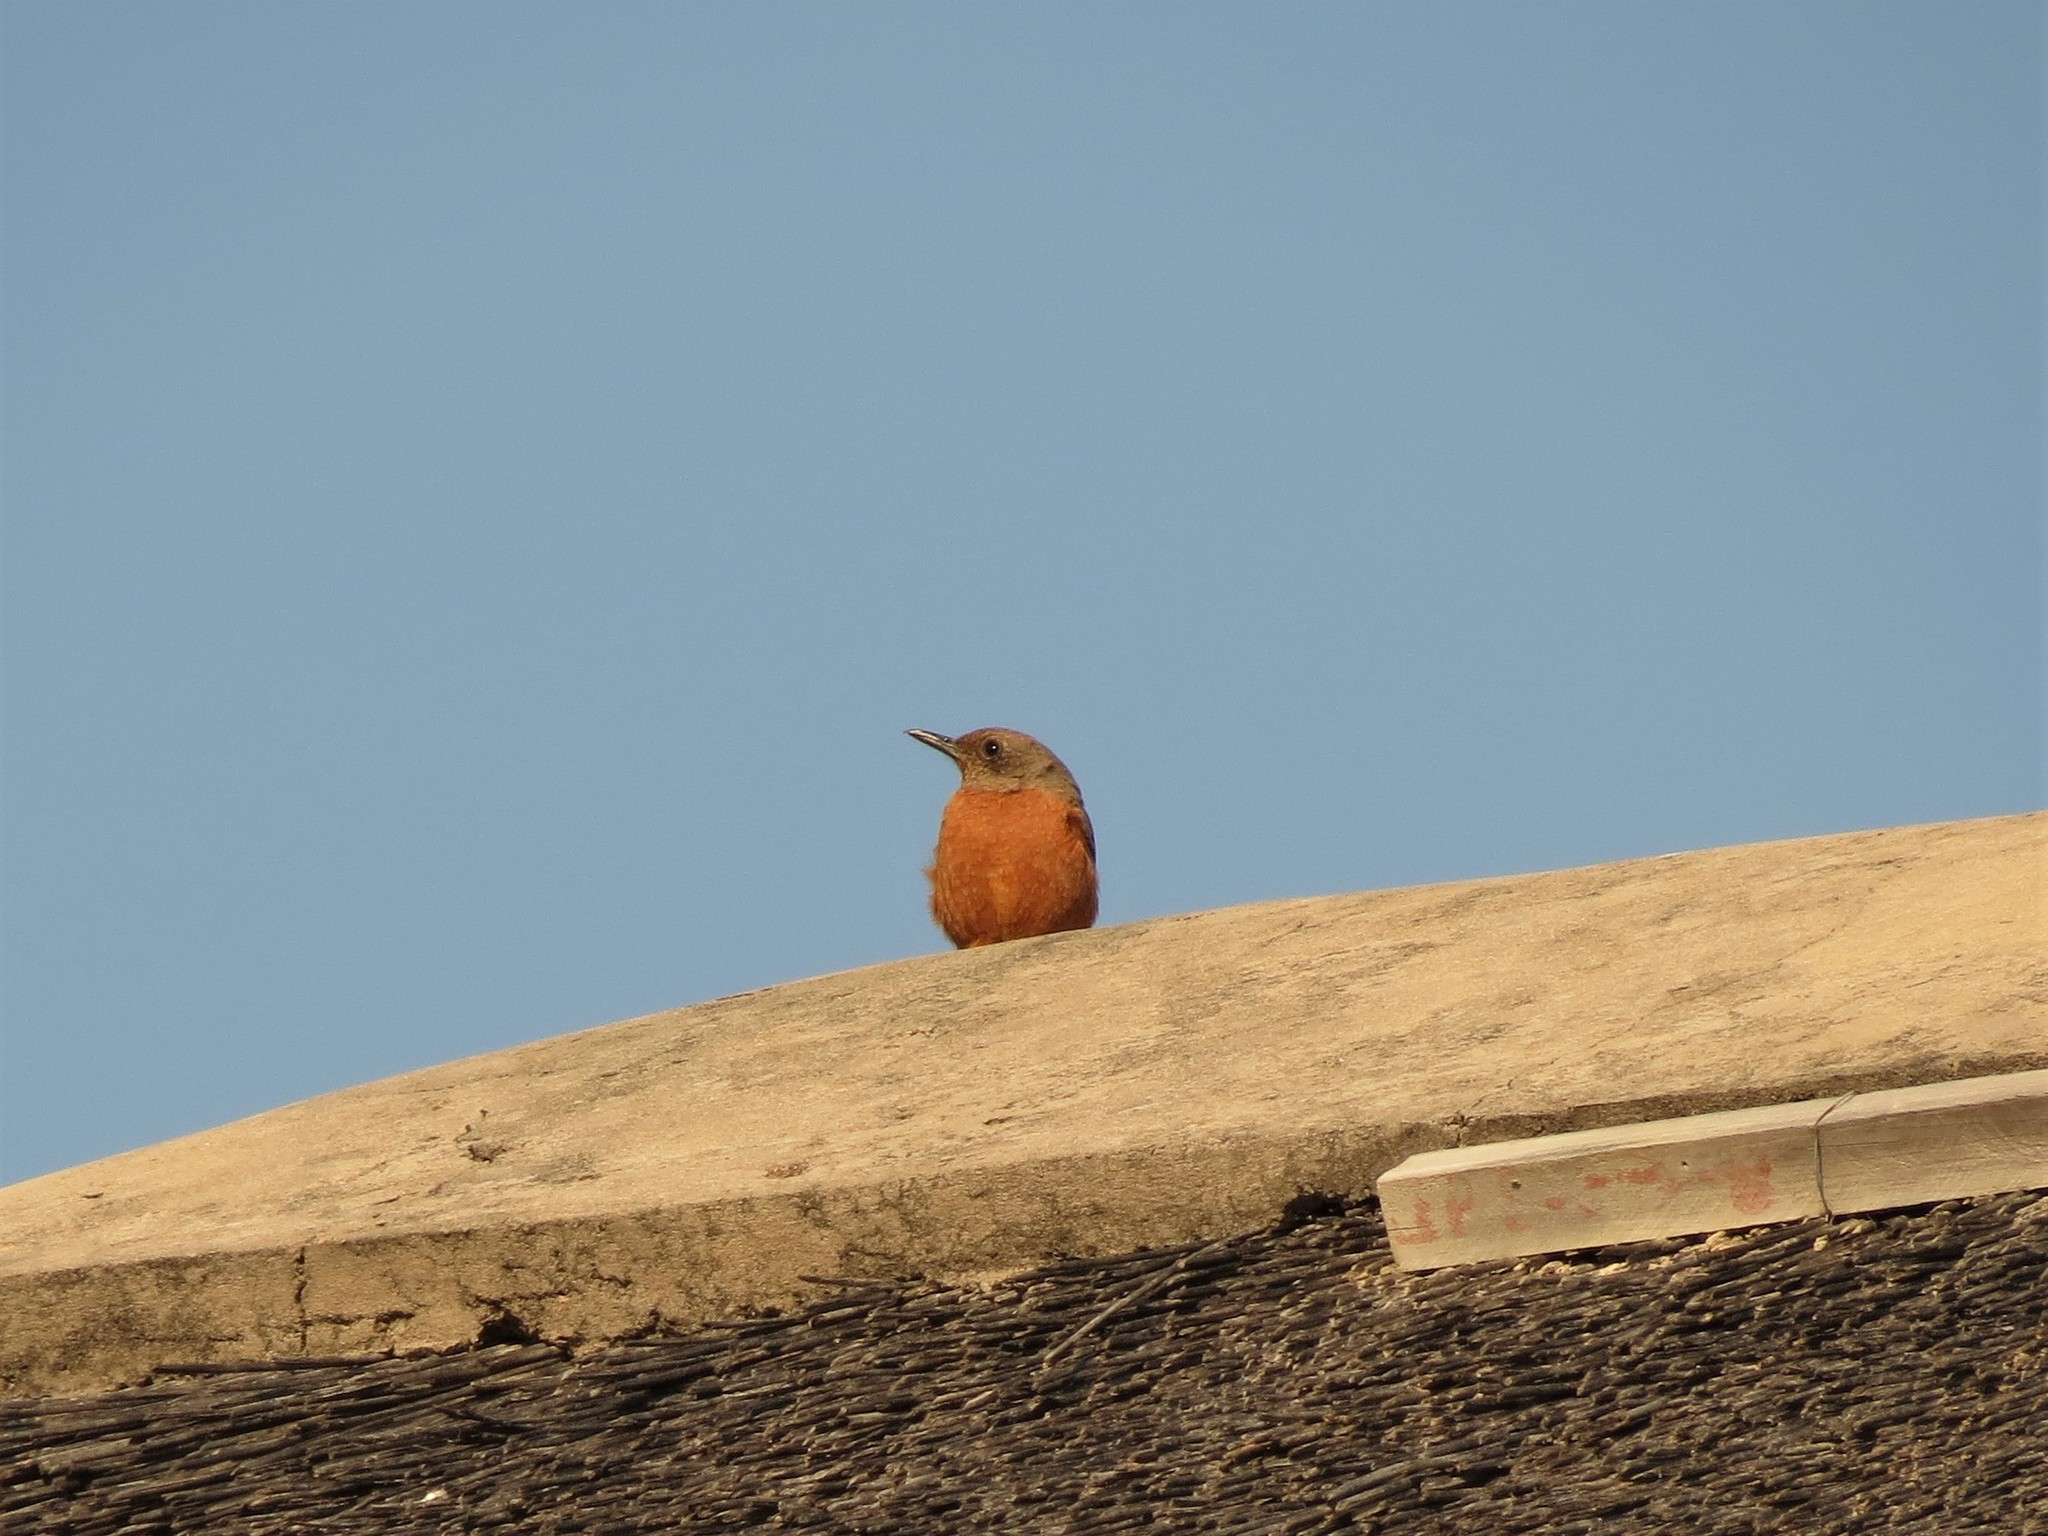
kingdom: Animalia
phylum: Chordata
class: Aves
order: Passeriformes
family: Muscicapidae
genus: Monticola
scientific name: Monticola rupestris
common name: Cape rock thrush
